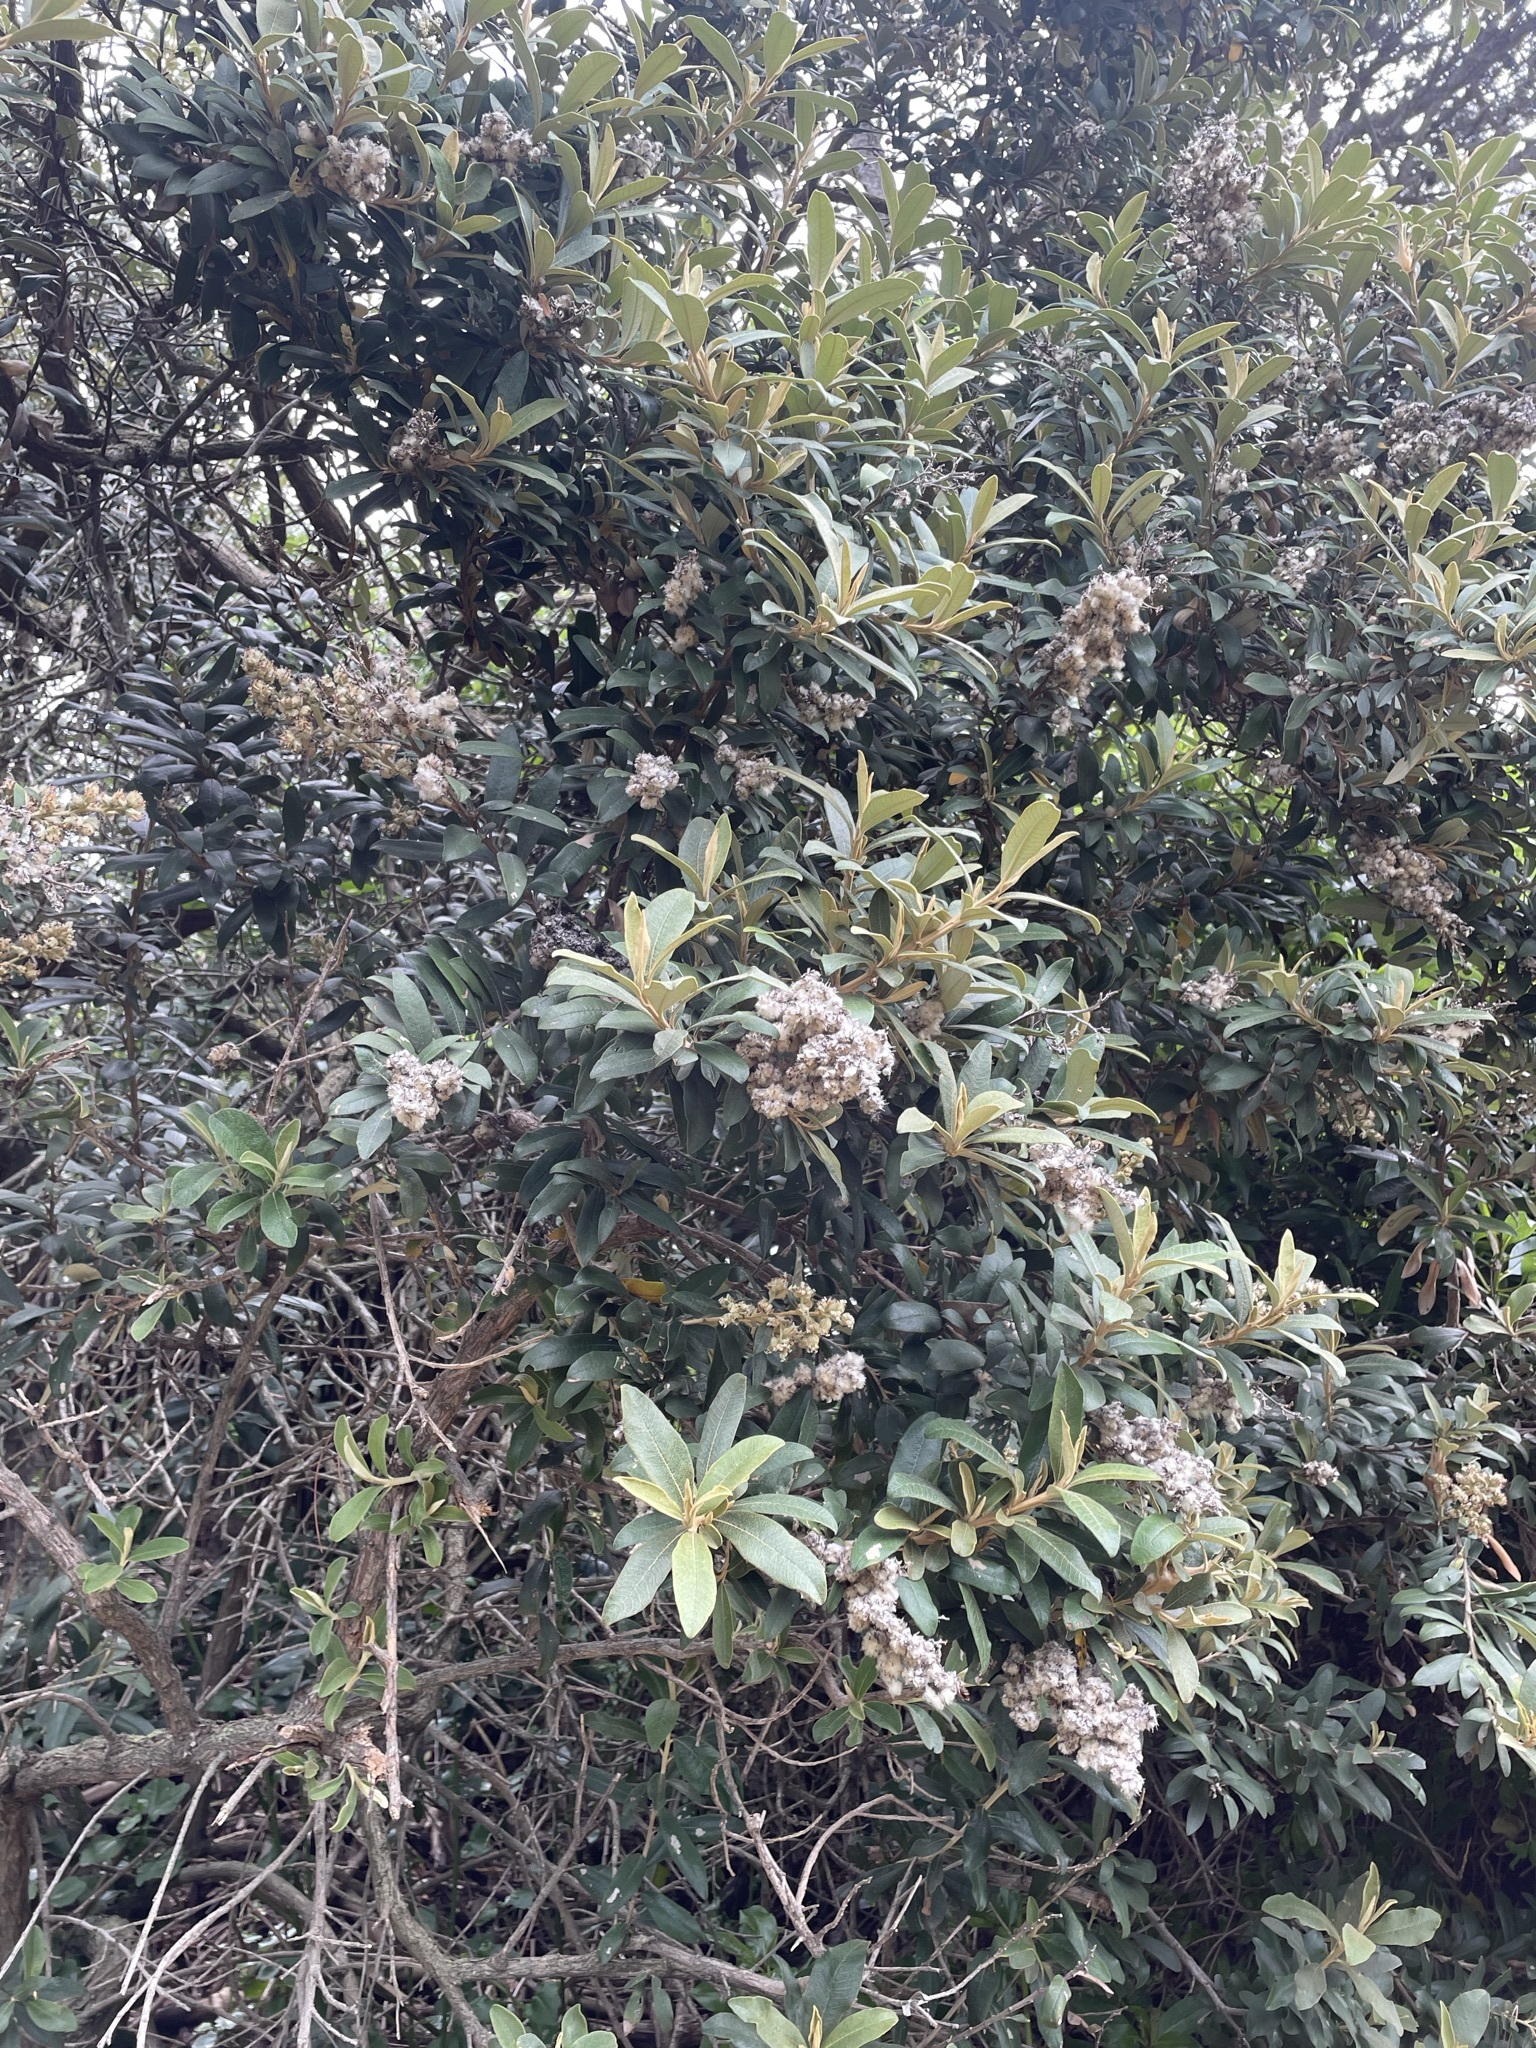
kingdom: Plantae
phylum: Tracheophyta
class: Magnoliopsida
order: Asterales
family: Asteraceae
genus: Tarchonanthus
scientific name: Tarchonanthus littoralis
